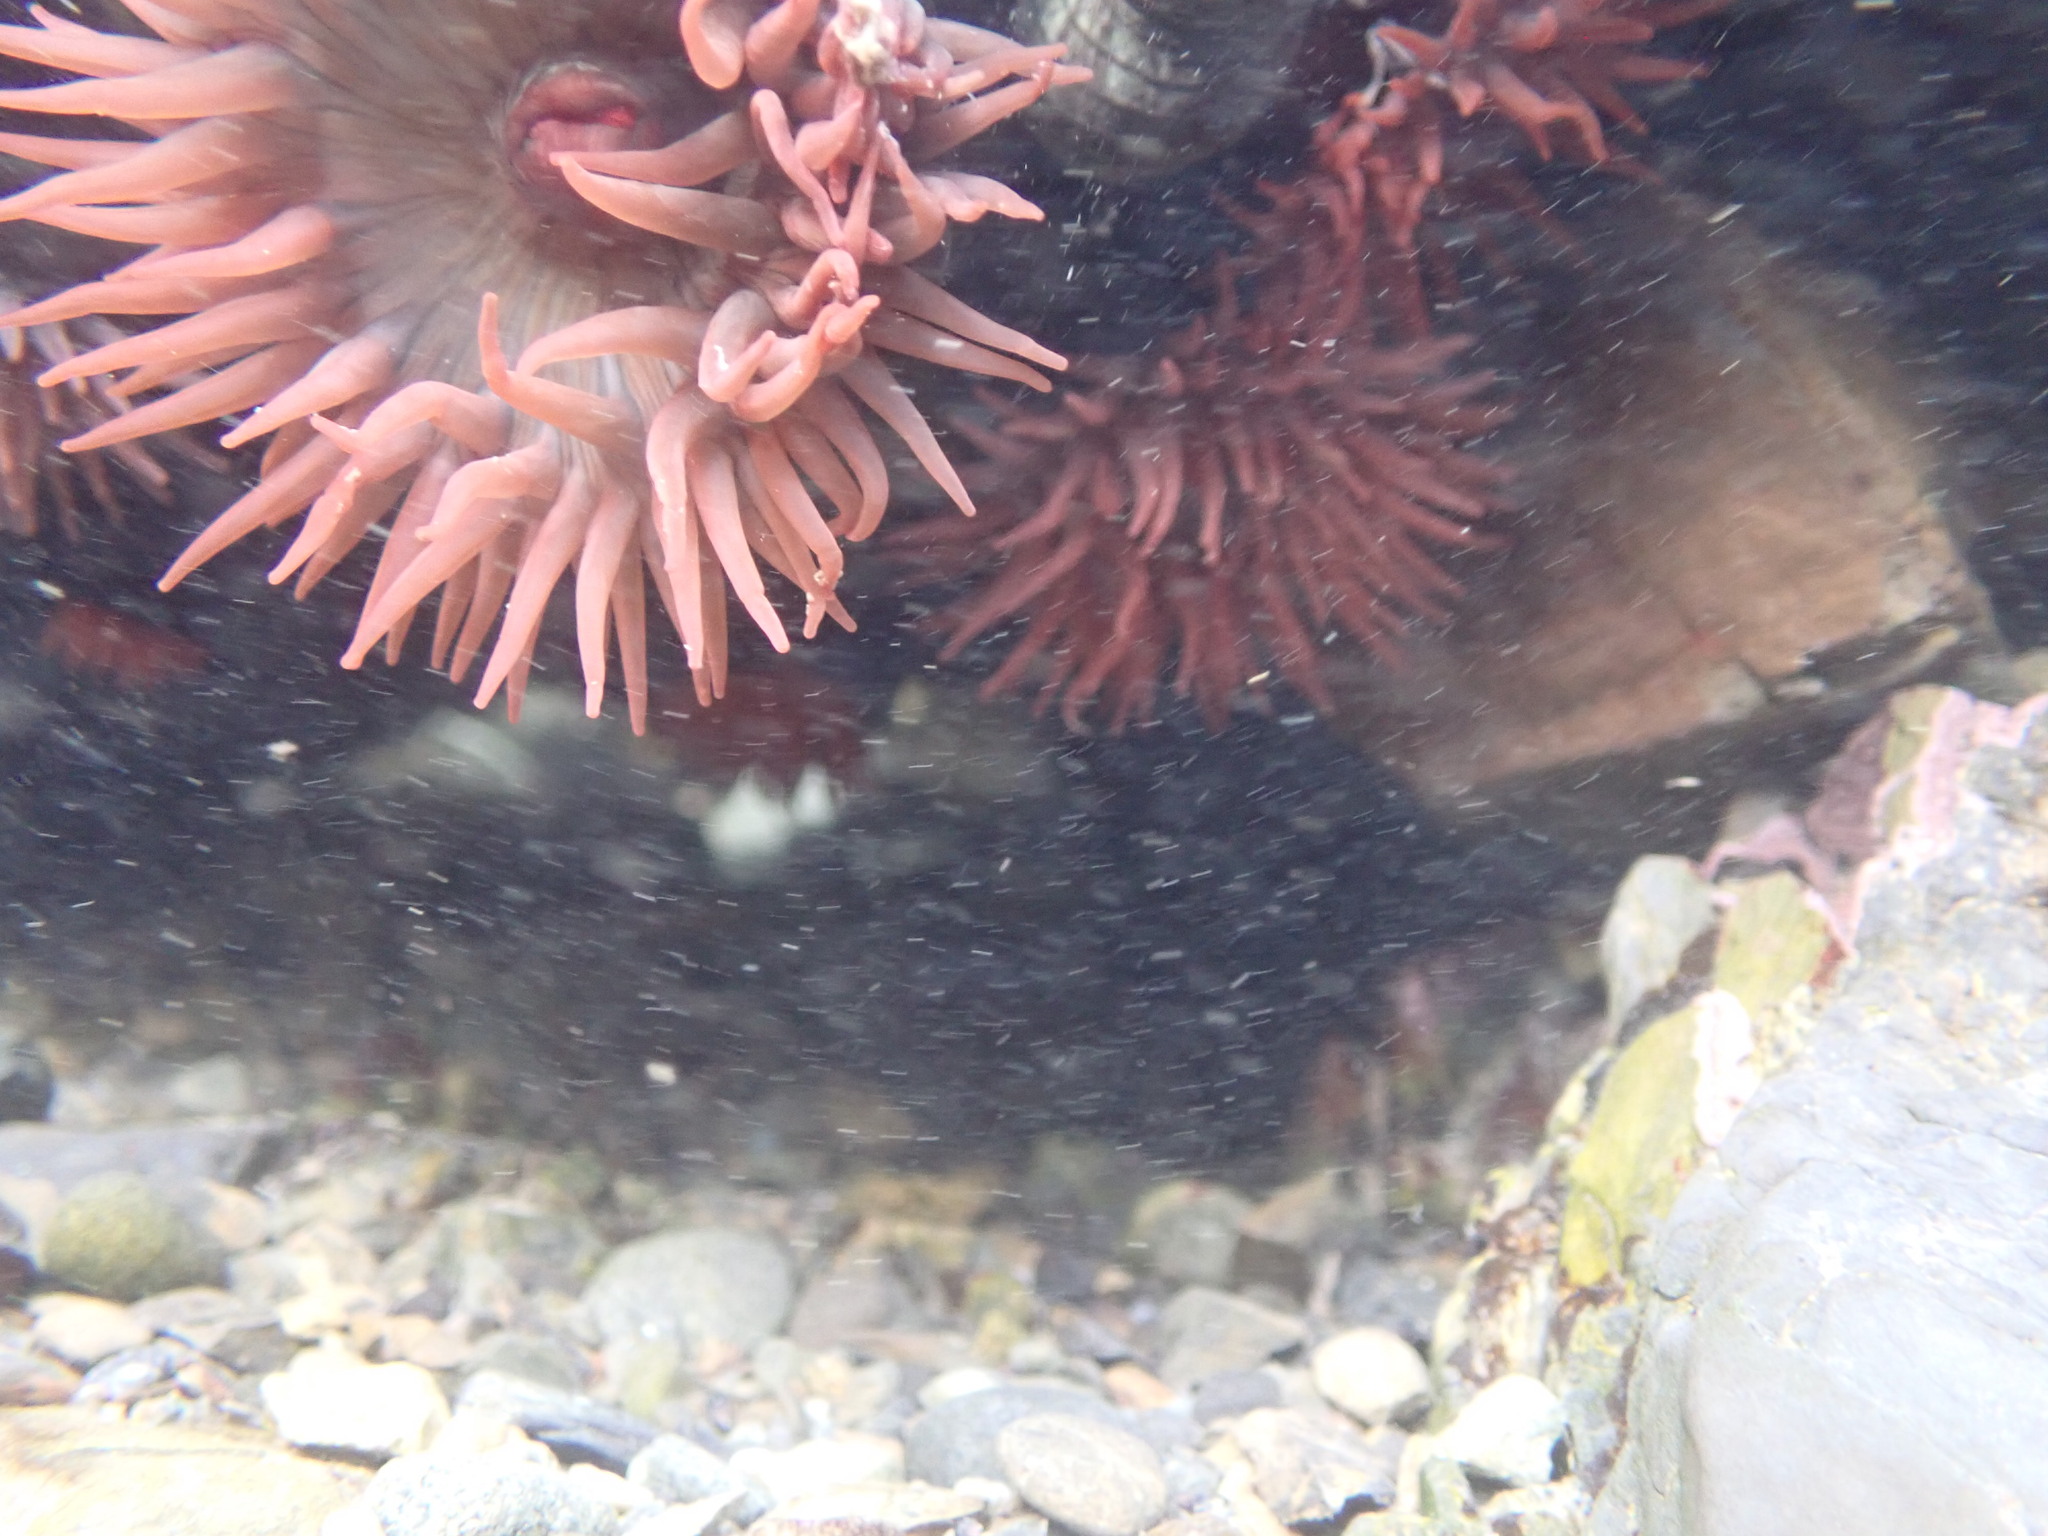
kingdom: Animalia
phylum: Cnidaria
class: Anthozoa
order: Actiniaria
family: Actiniidae
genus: Actinia
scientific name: Actinia tenebrosa
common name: Waratah anemone
